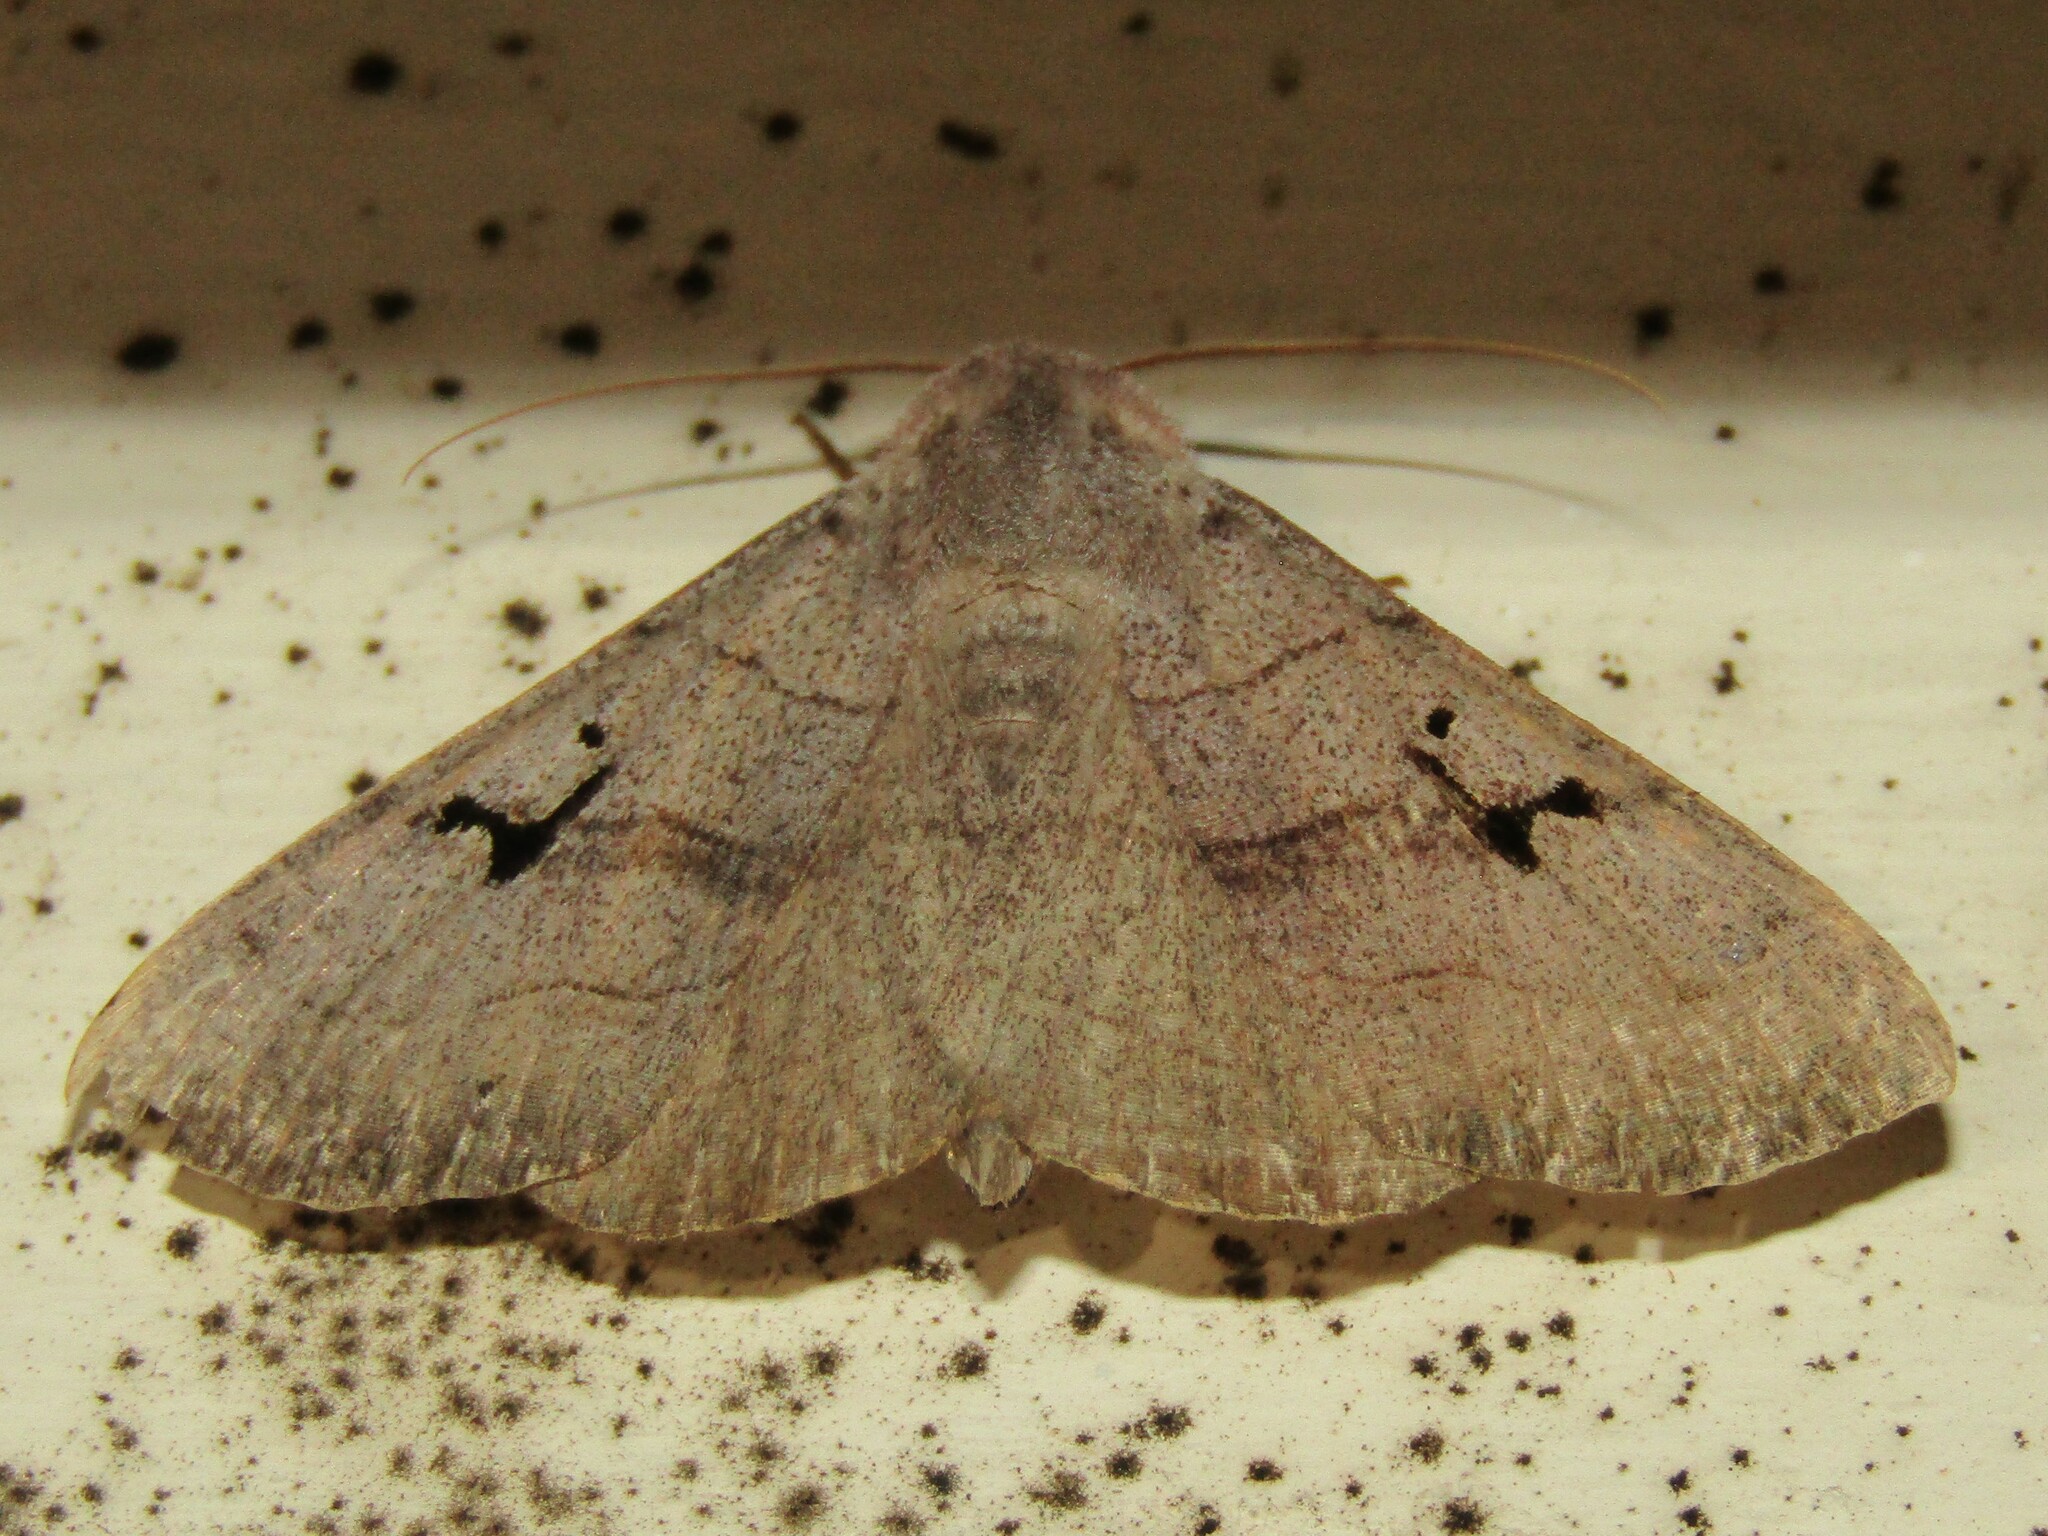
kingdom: Animalia
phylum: Arthropoda
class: Insecta
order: Lepidoptera
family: Erebidae
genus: Panopoda
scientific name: Panopoda carneicosta
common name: Brown panopoda moth
